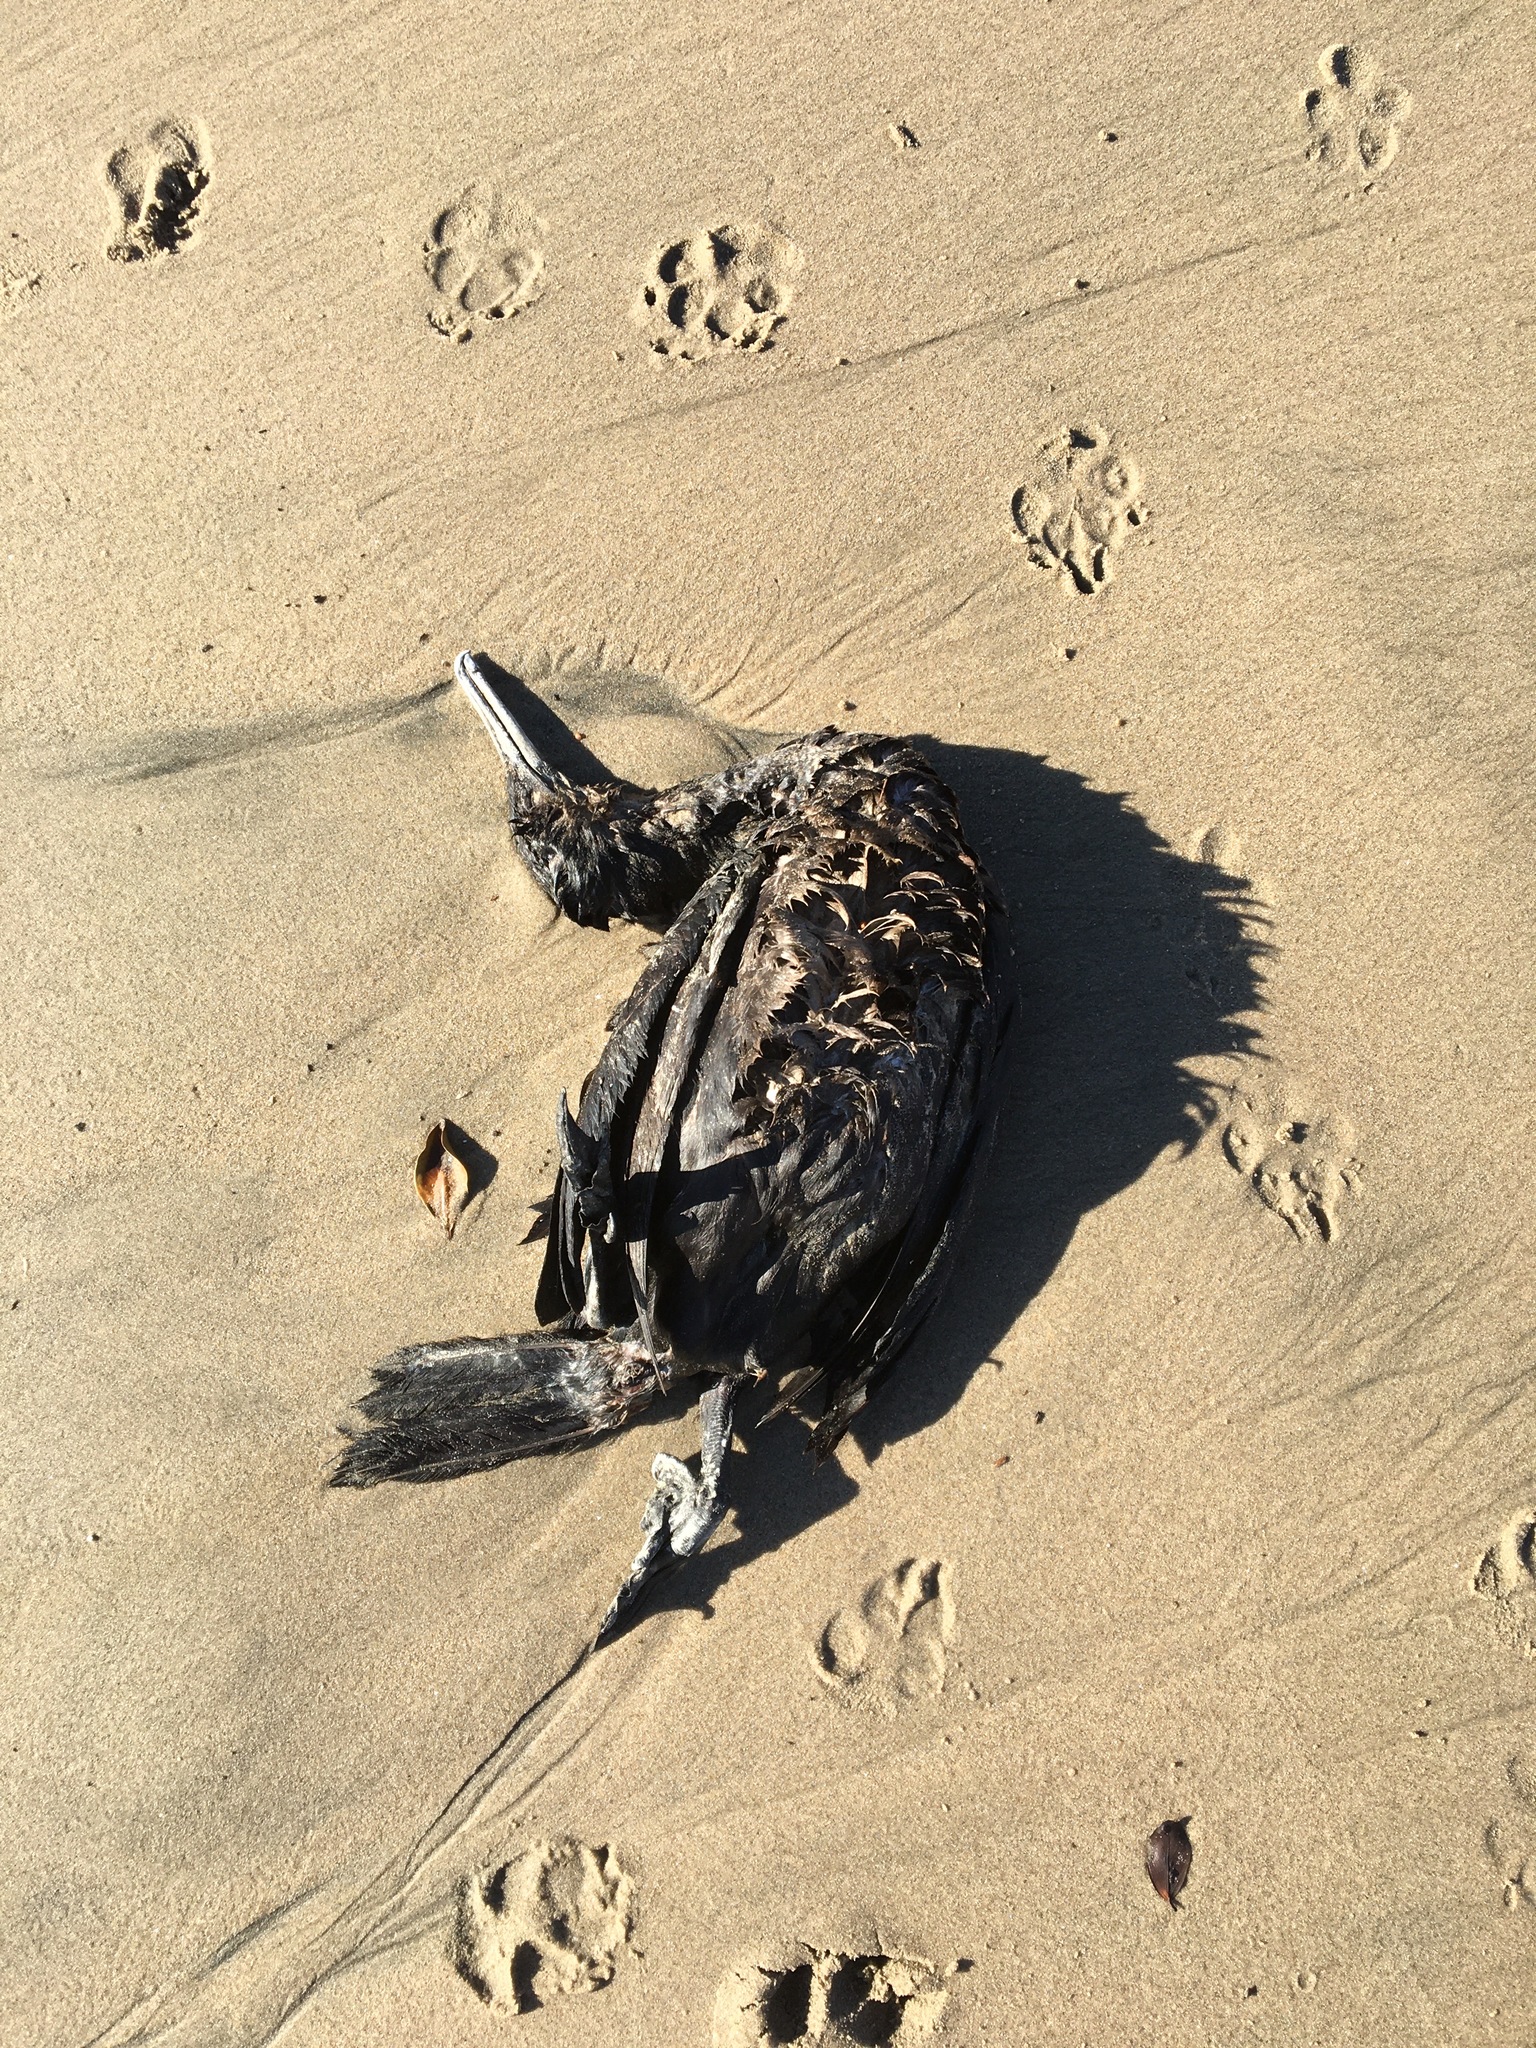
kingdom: Animalia
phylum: Chordata
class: Aves
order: Suliformes
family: Phalacrocoracidae
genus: Urile
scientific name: Urile penicillatus
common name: Brandt's cormorant
